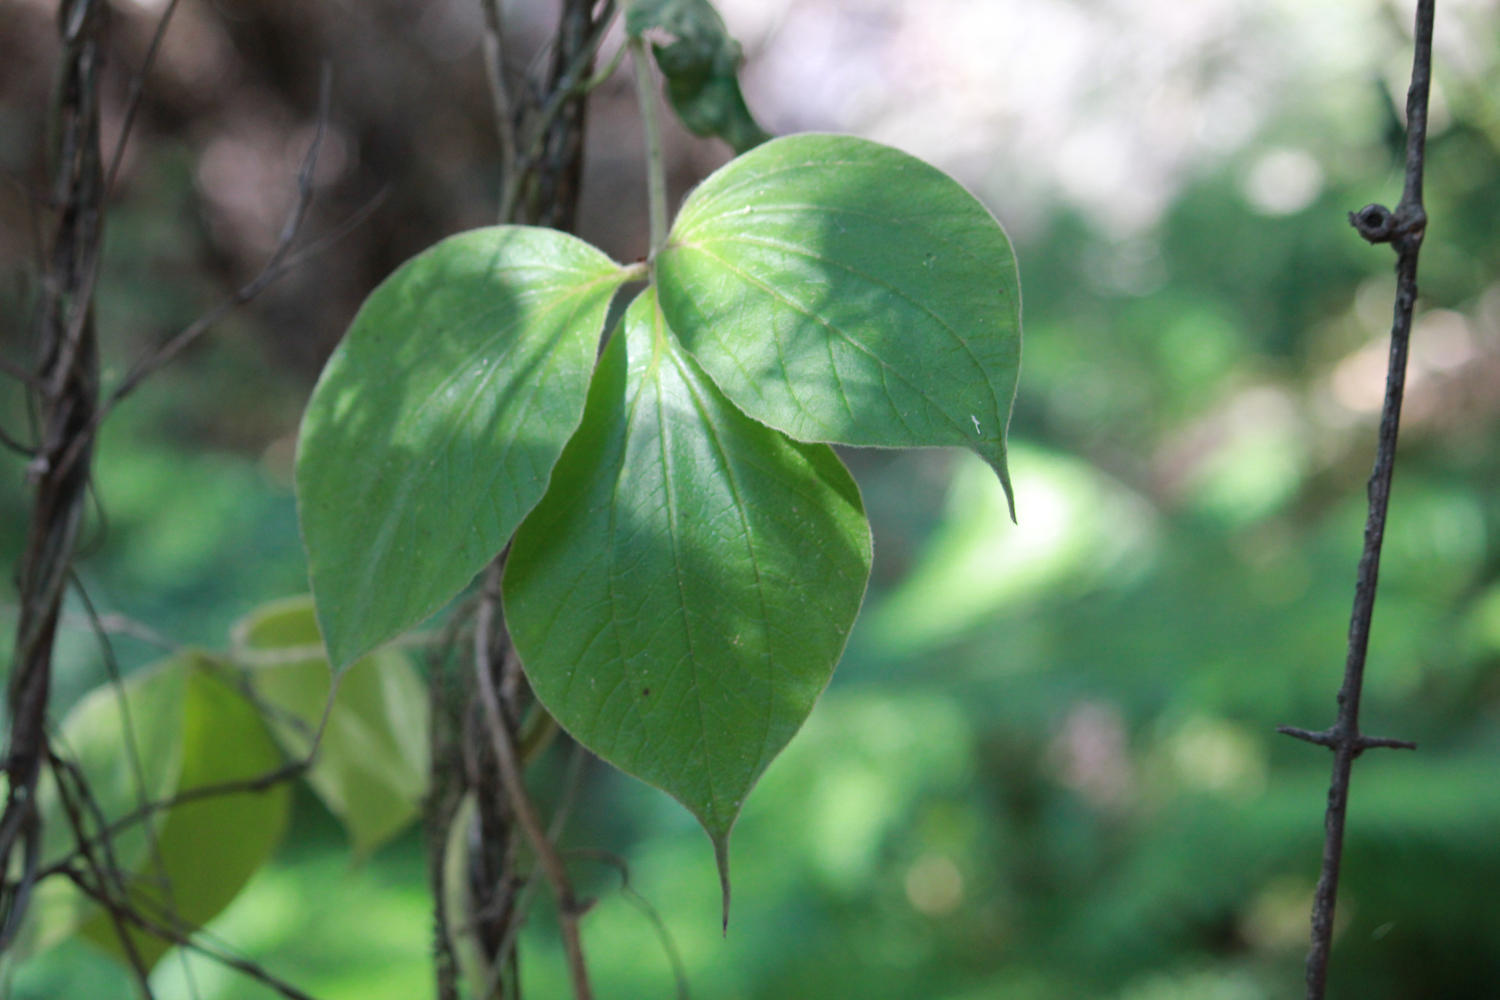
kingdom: Plantae
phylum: Tracheophyta
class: Liliopsida
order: Dioscoreales
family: Dioscoreaceae
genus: Dioscorea
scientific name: Dioscorea dregeana
